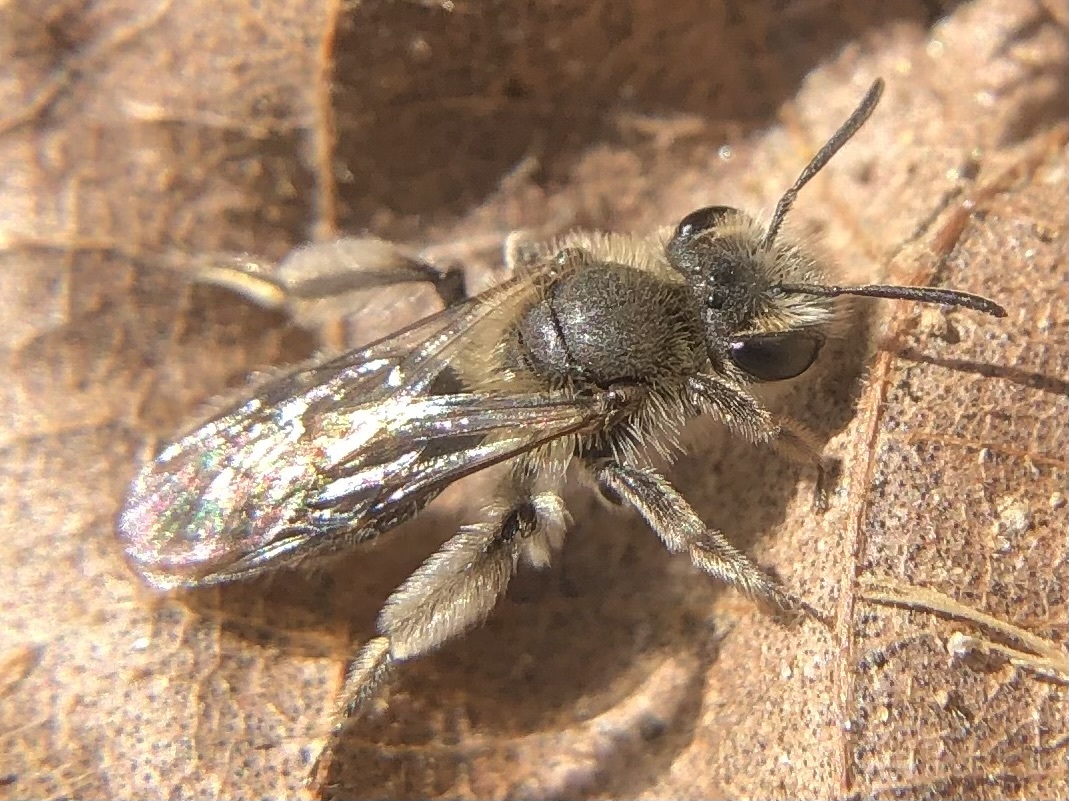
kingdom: Animalia
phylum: Arthropoda
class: Insecta
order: Hymenoptera
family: Andrenidae
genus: Andrena
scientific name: Andrena erigeniae
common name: Spring beauty miner
